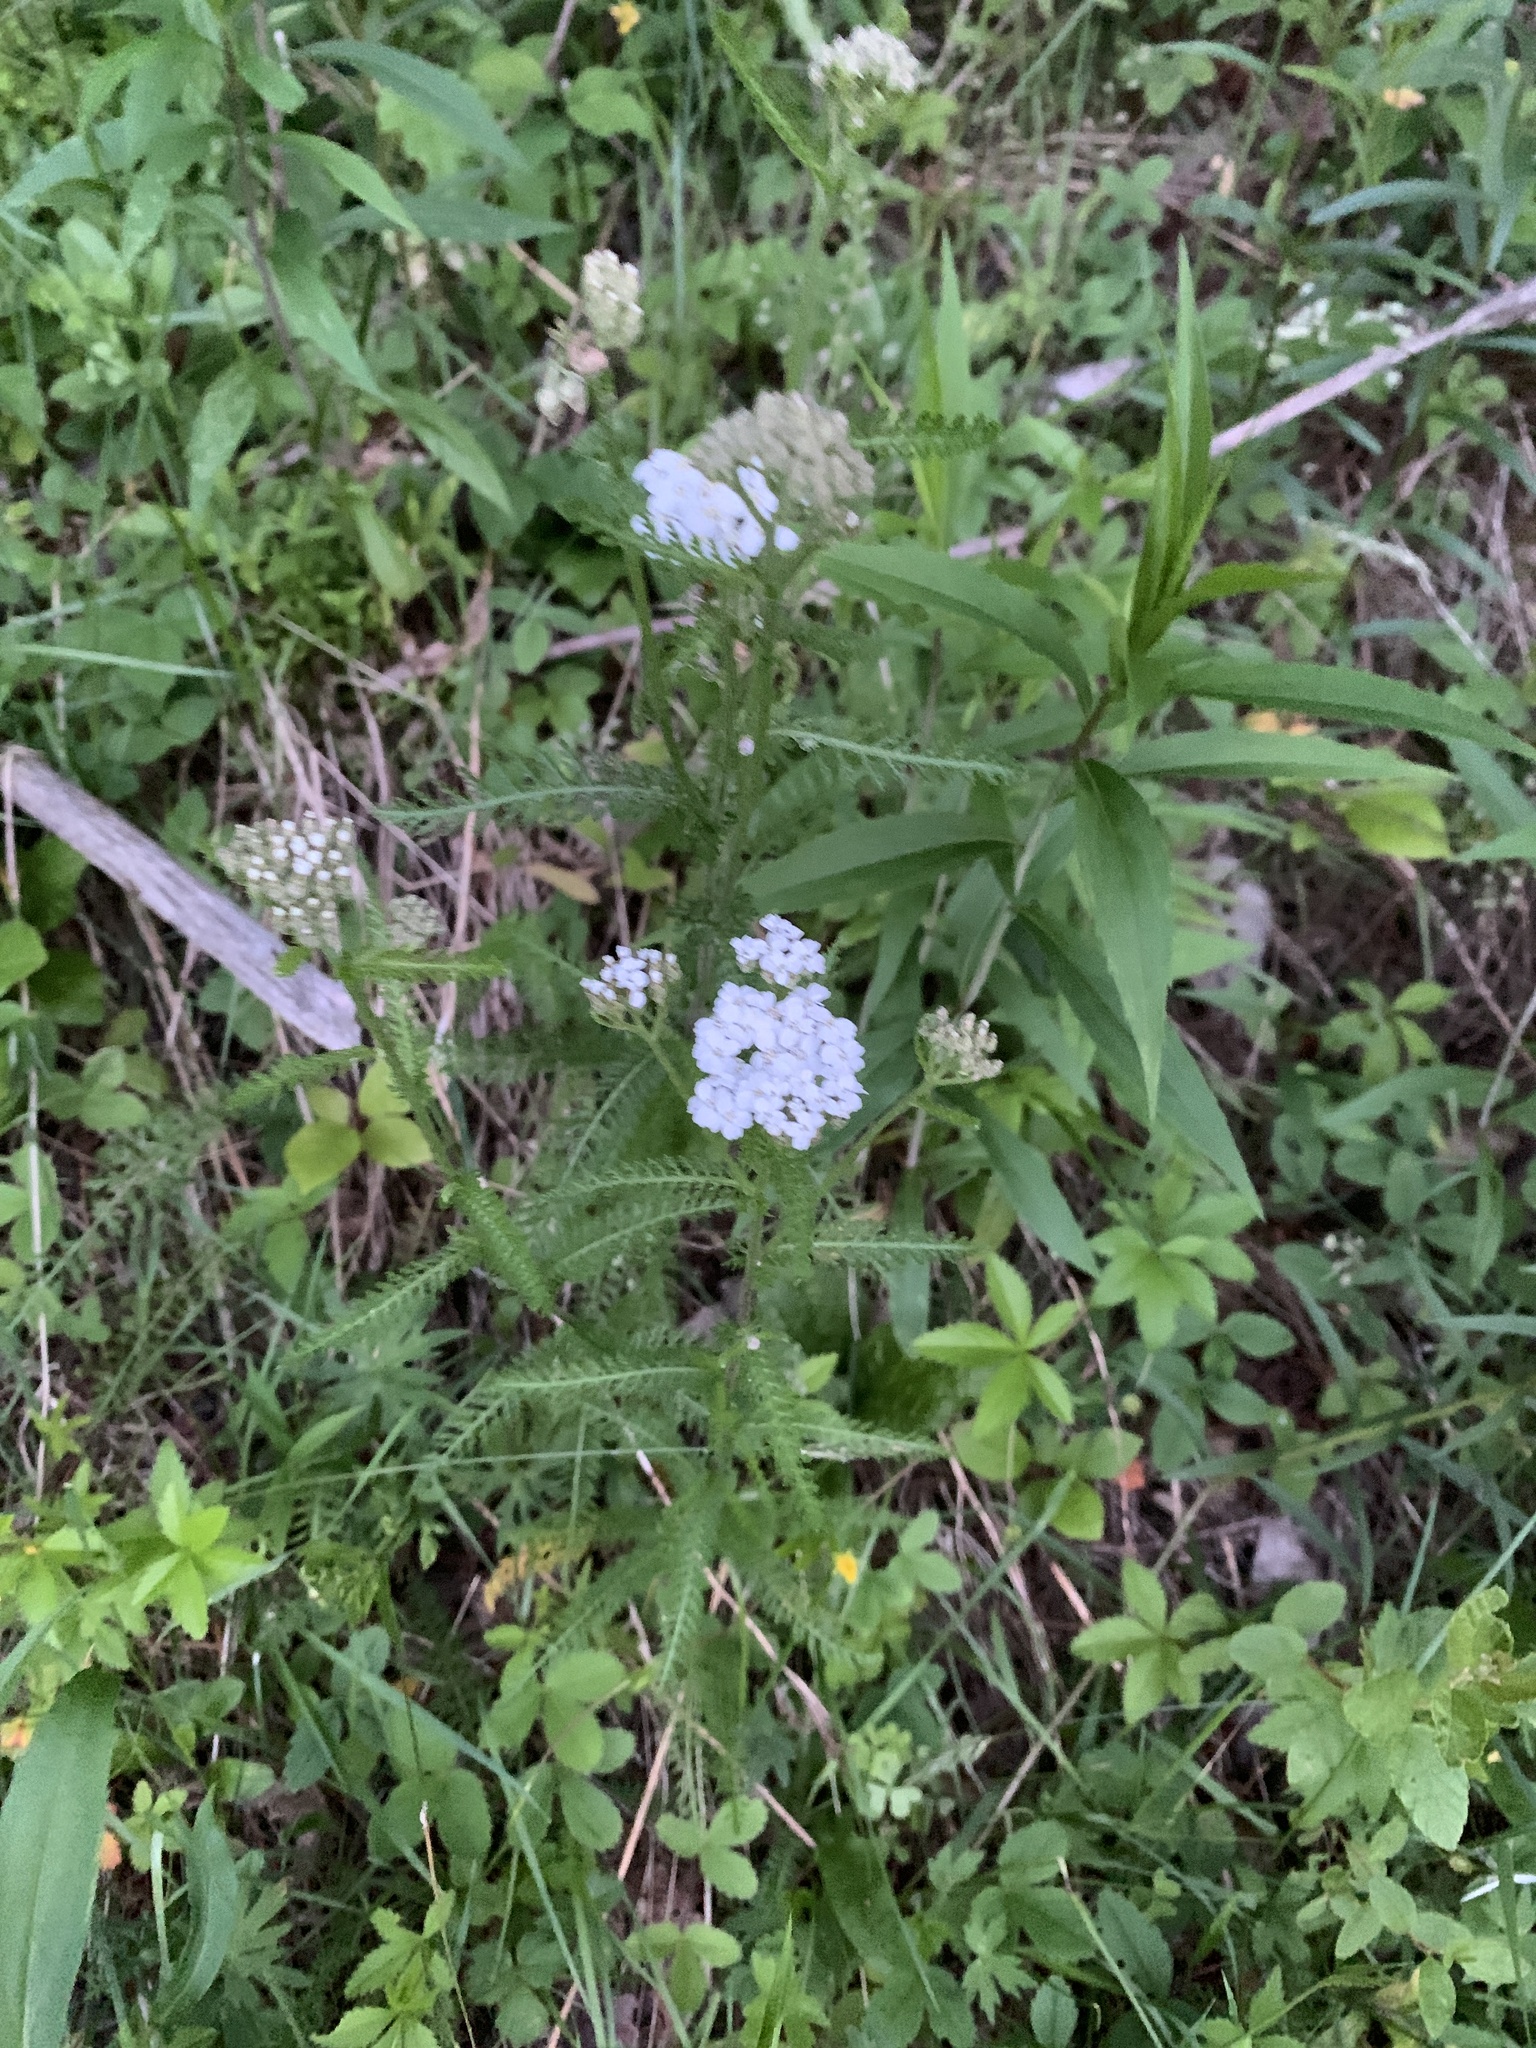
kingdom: Plantae
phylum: Tracheophyta
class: Magnoliopsida
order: Asterales
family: Asteraceae
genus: Achillea
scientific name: Achillea millefolium
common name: Yarrow
